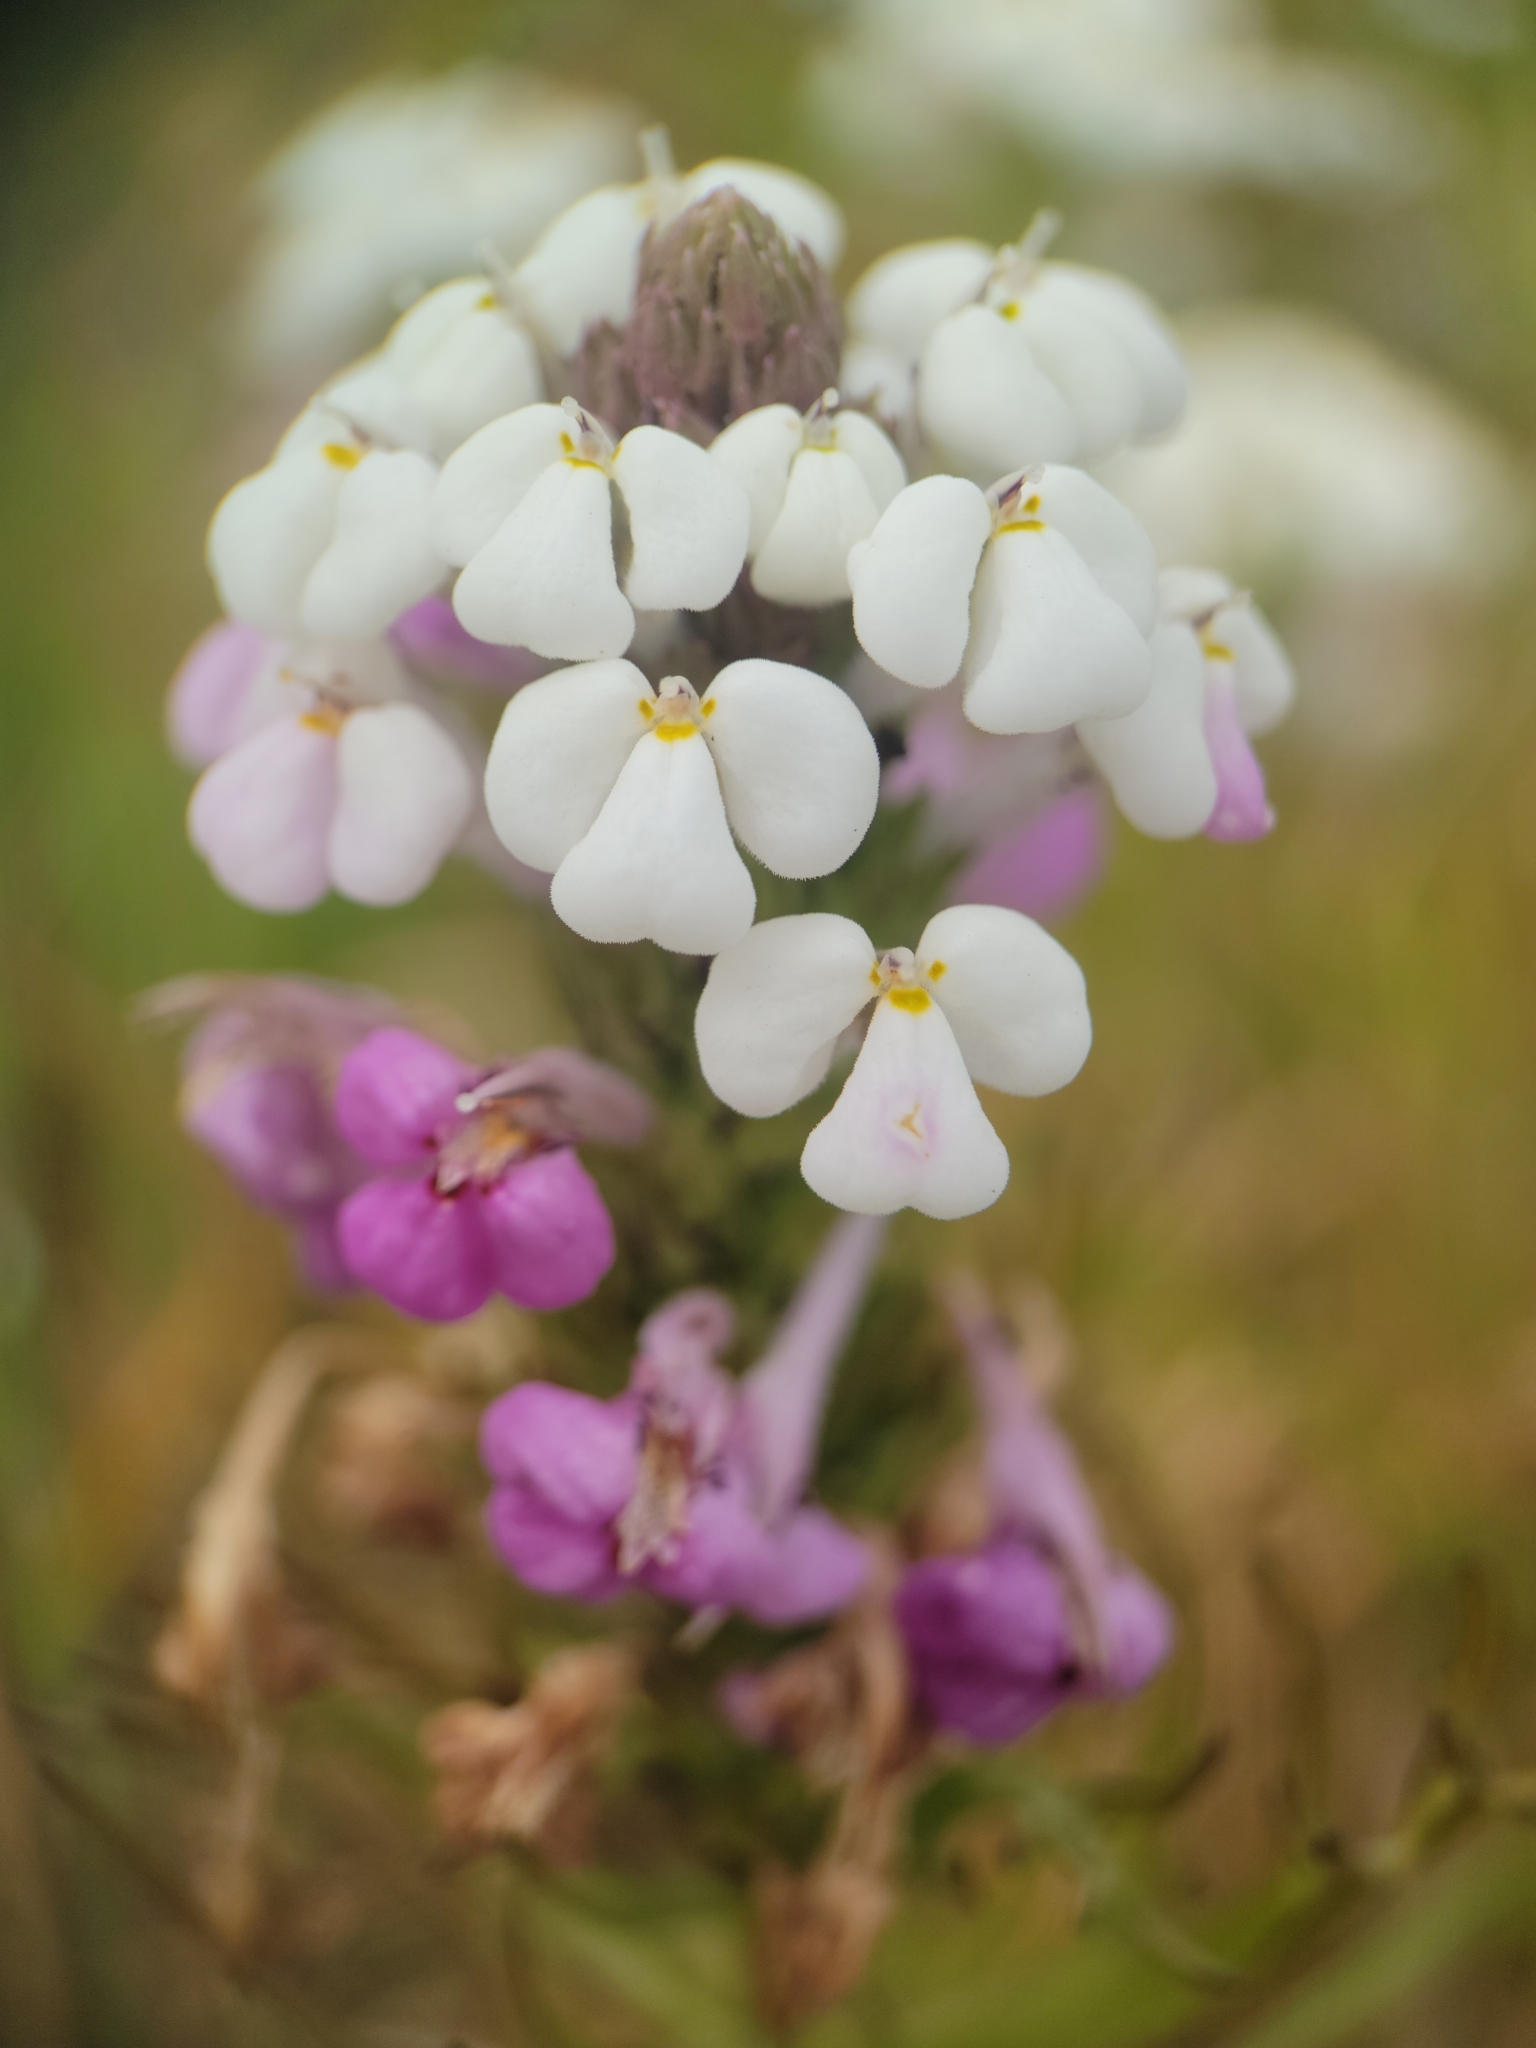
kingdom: Plantae
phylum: Tracheophyta
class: Magnoliopsida
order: Lamiales
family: Orobanchaceae
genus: Triphysaria
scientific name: Triphysaria versicolor
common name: Bearded false owl-clover
